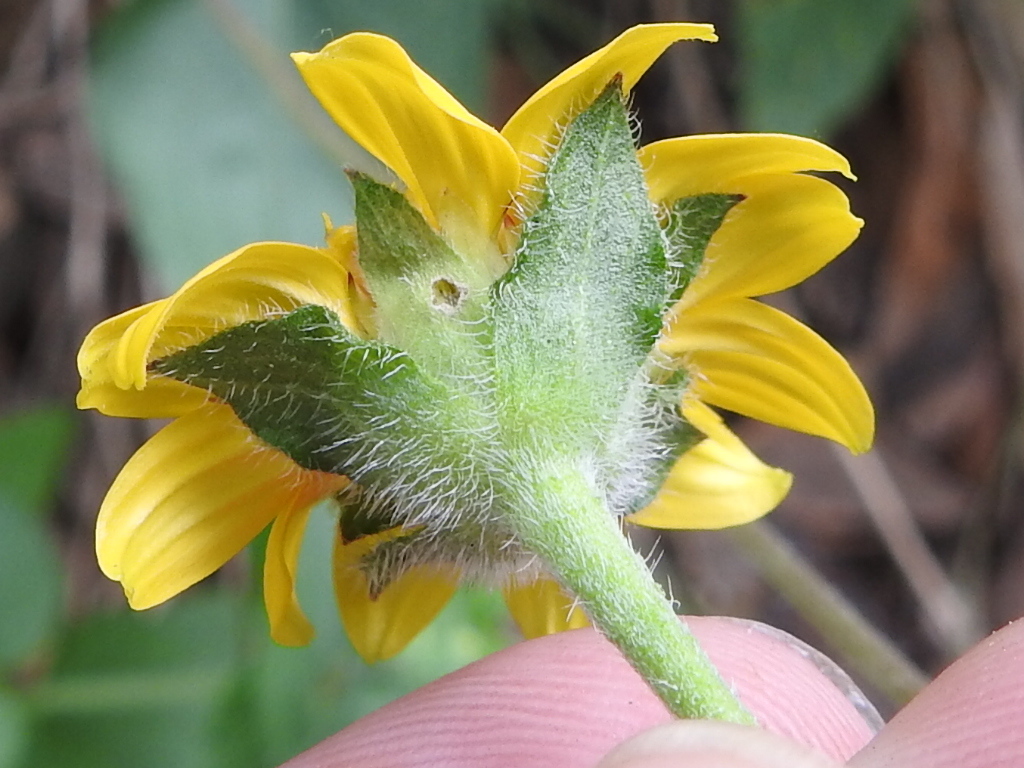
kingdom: Plantae
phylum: Tracheophyta
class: Magnoliopsida
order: Asterales
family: Asteraceae
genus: Lasianthaea
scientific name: Lasianthaea podocephala
